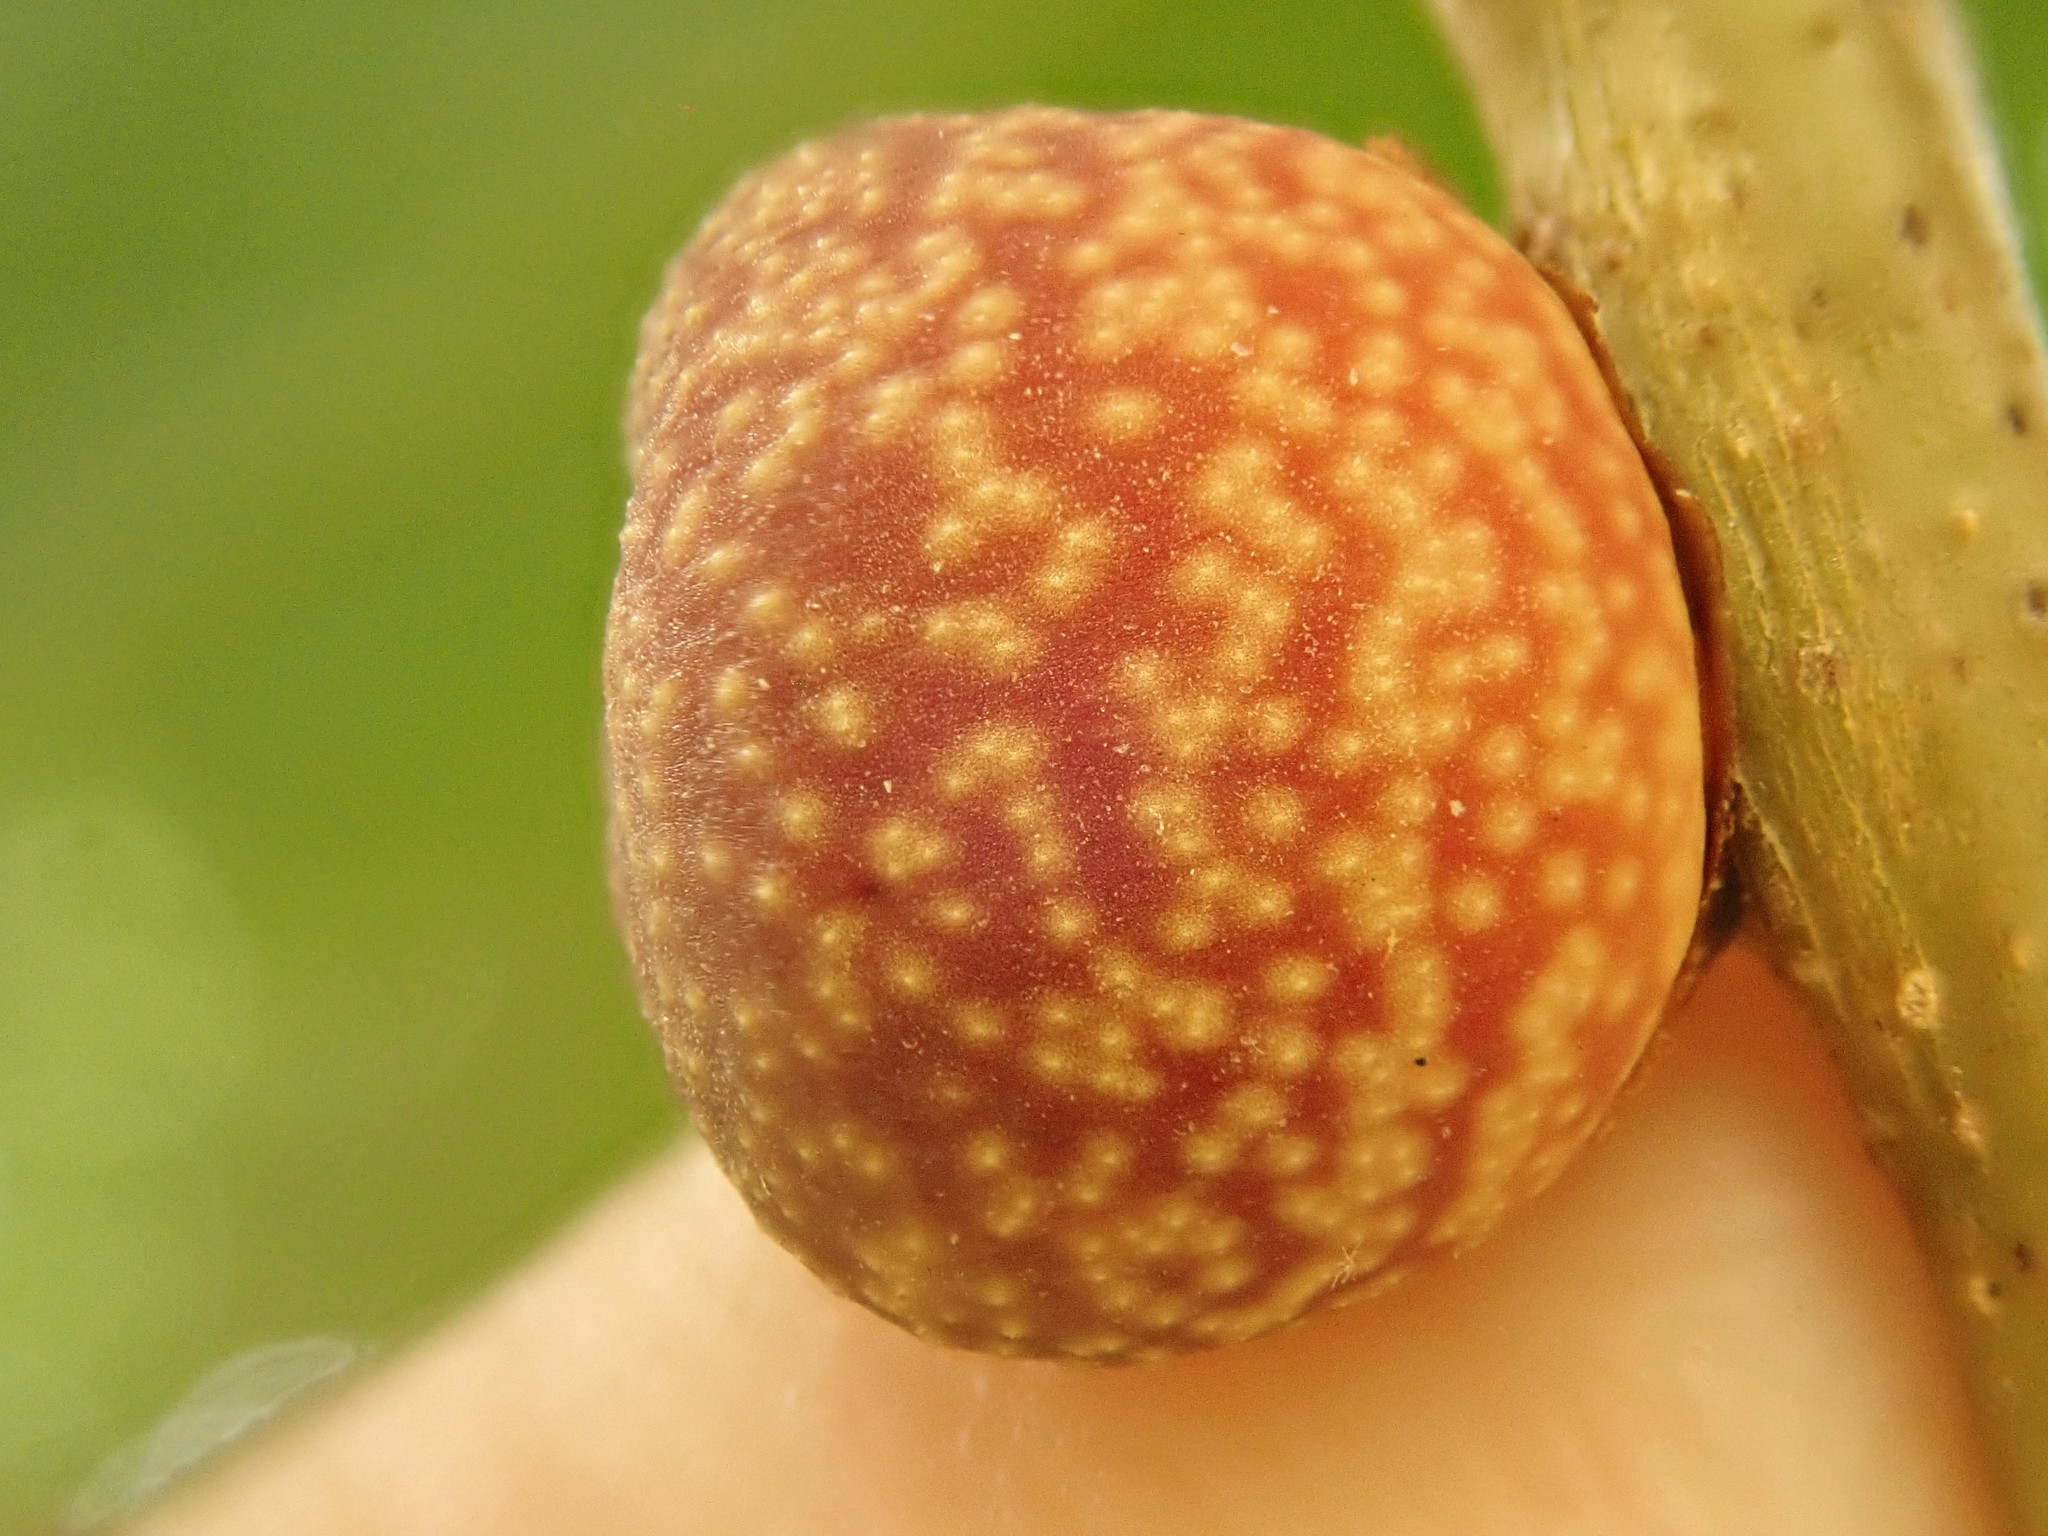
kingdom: Animalia
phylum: Arthropoda
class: Insecta
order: Hymenoptera
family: Cynipidae
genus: Kokkocynips
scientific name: Kokkocynips imbricariae
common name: Banded bullet gall wasp
